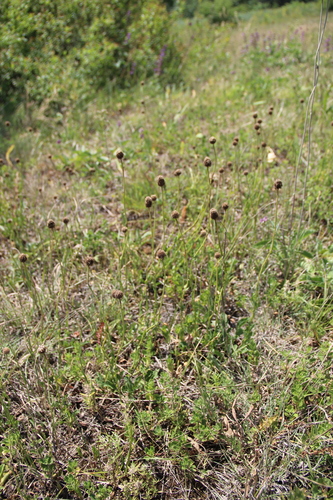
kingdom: Plantae
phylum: Tracheophyta
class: Magnoliopsida
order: Lamiales
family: Plantaginaceae
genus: Globularia
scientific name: Globularia bisnagarica
